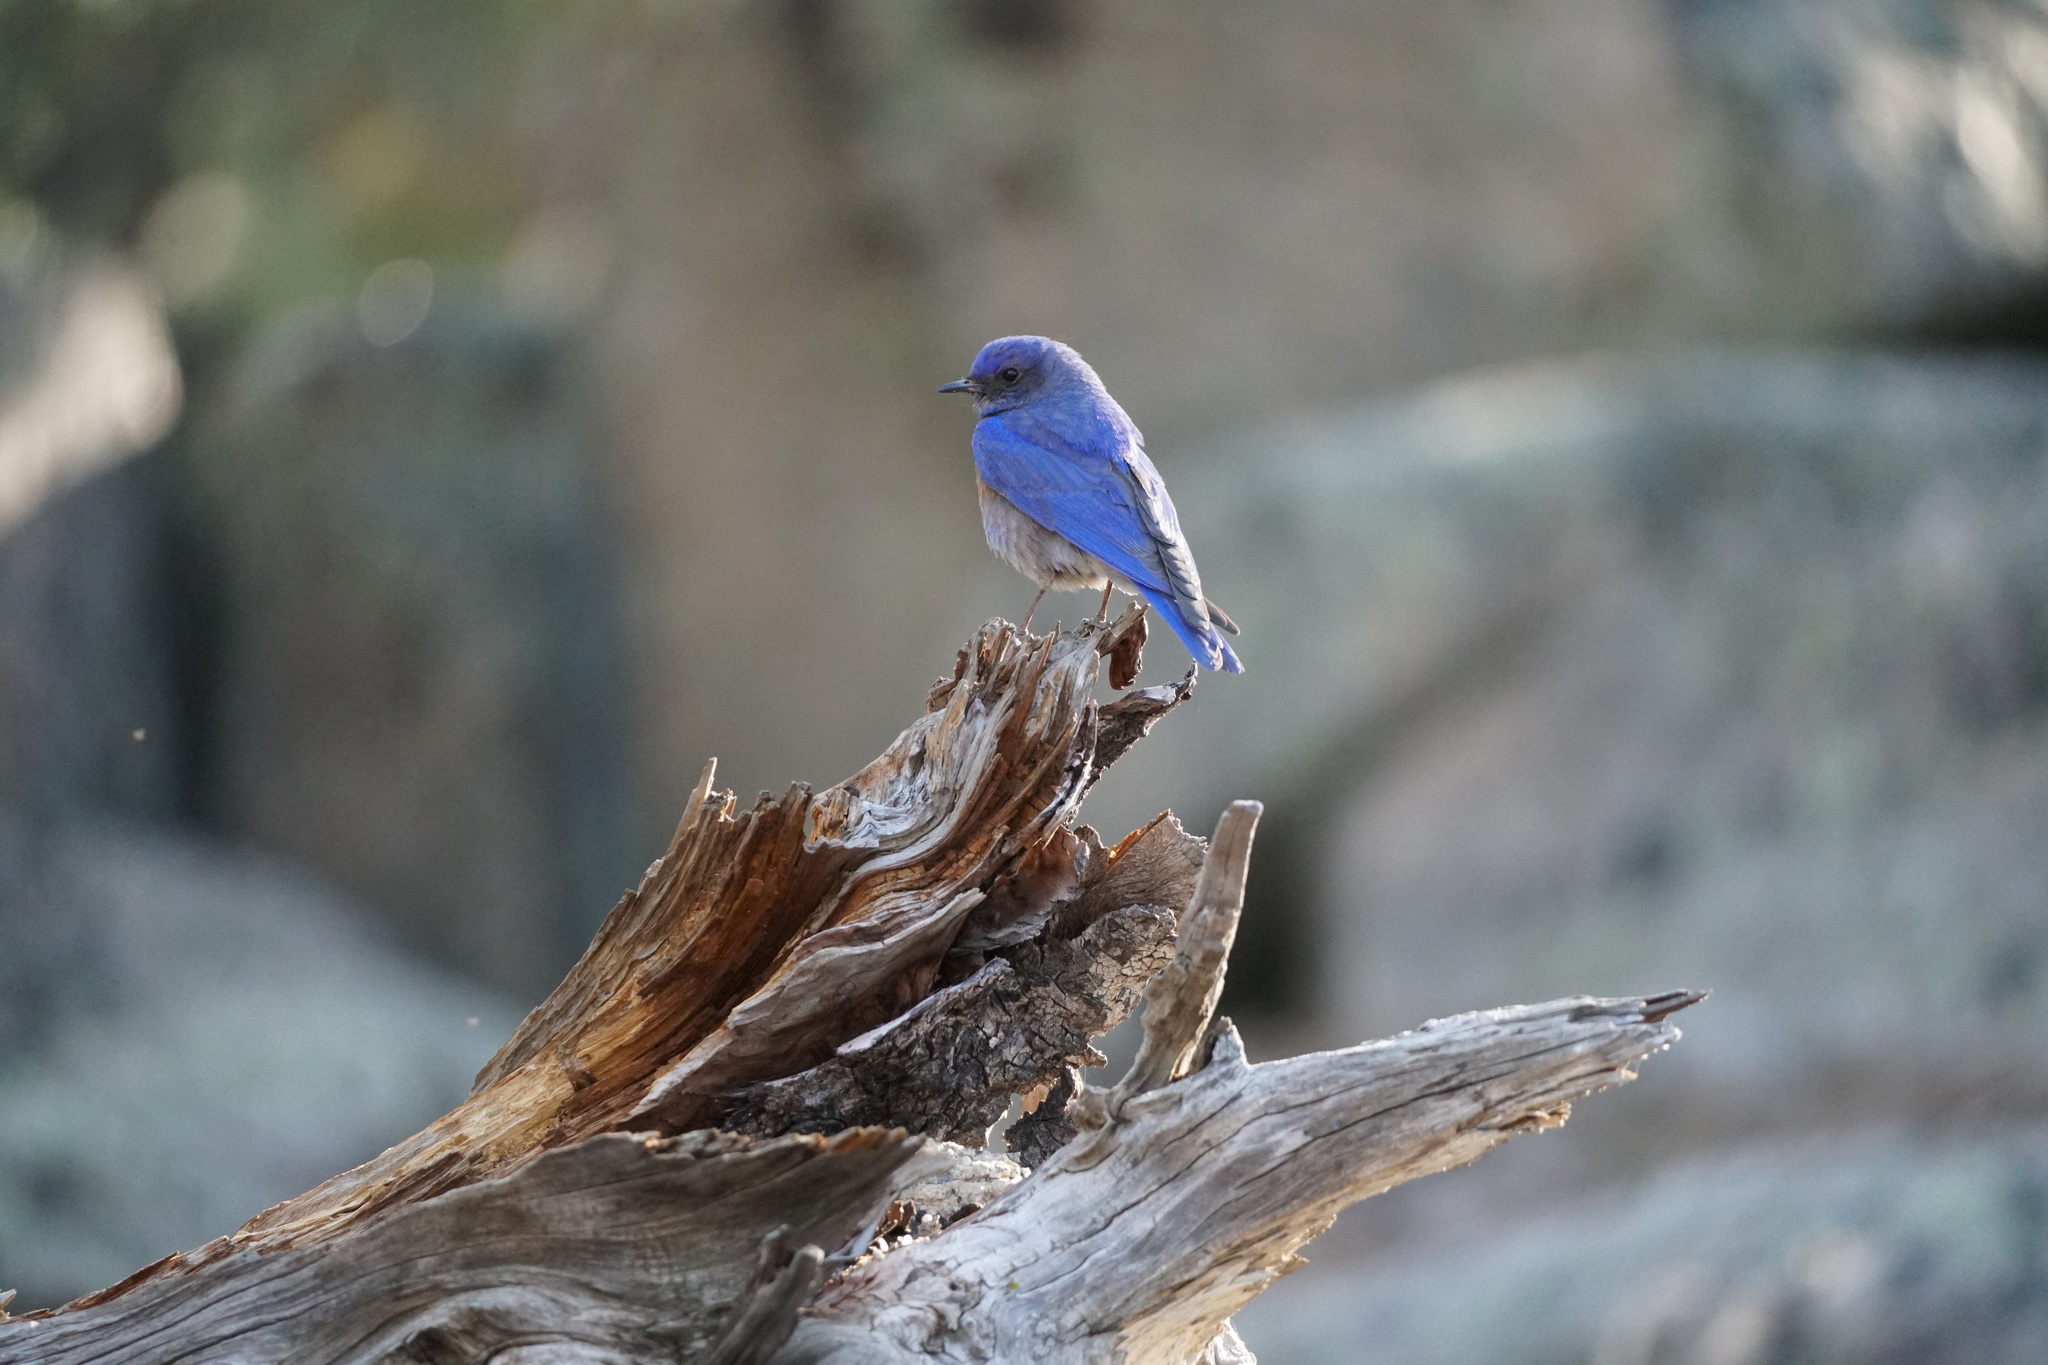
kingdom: Animalia
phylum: Chordata
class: Aves
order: Passeriformes
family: Turdidae
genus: Sialia
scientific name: Sialia mexicana
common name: Western bluebird
